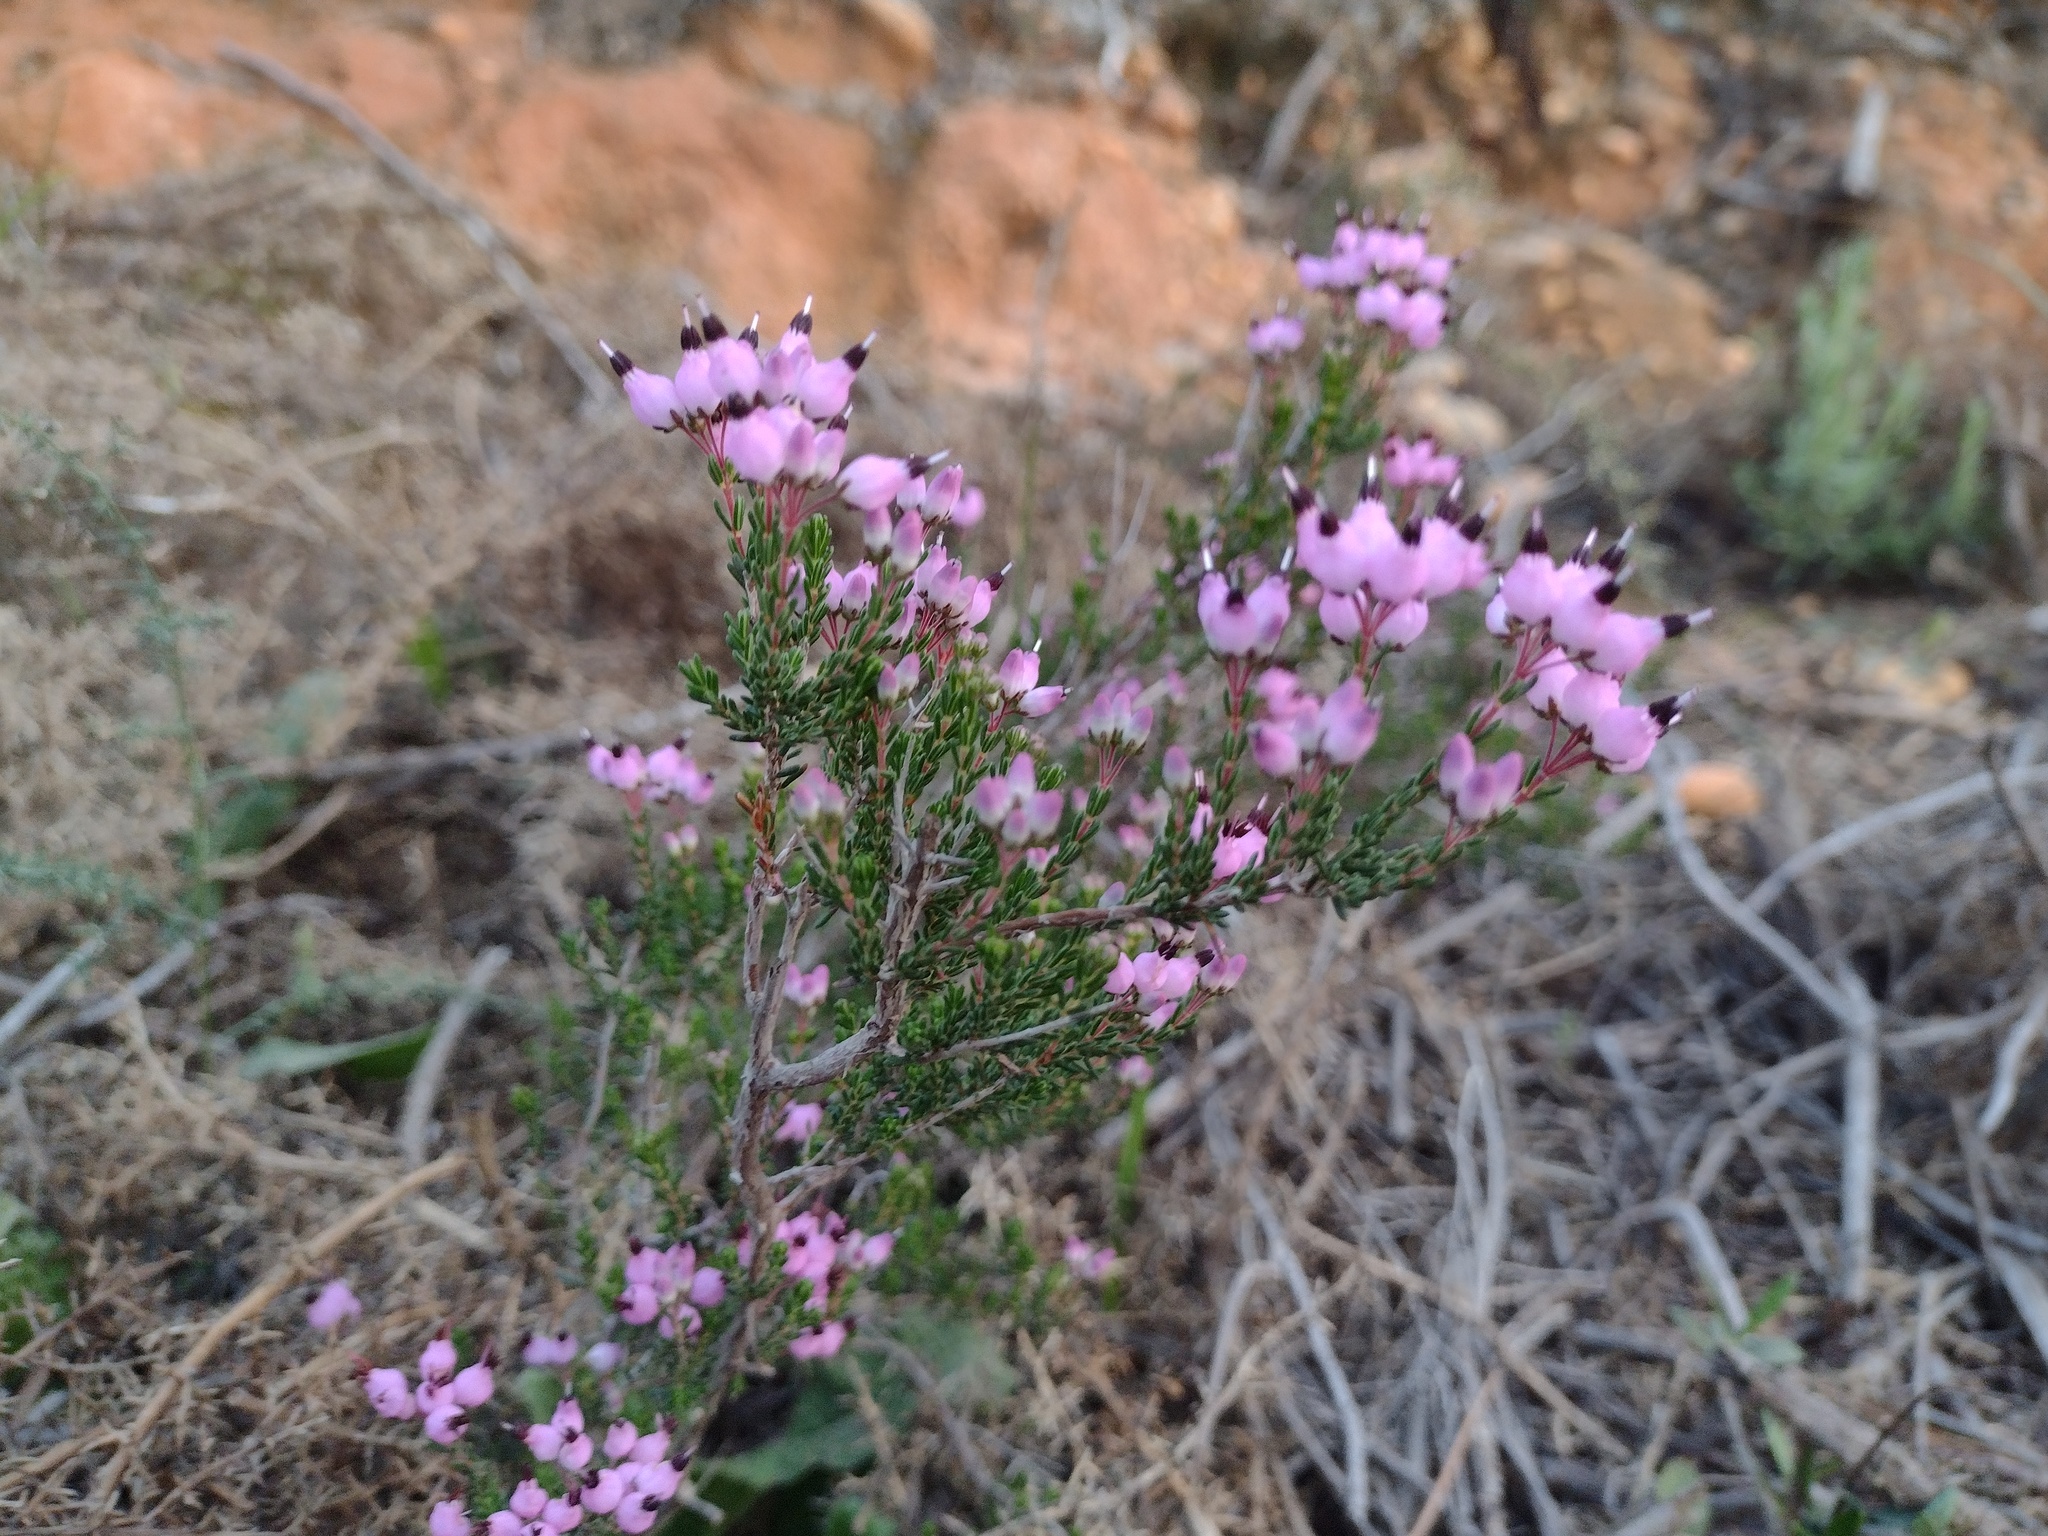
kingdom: Plantae
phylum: Tracheophyta
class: Magnoliopsida
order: Ericales
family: Ericaceae
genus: Erica
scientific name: Erica umbellata
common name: Dwarf spanish heath
